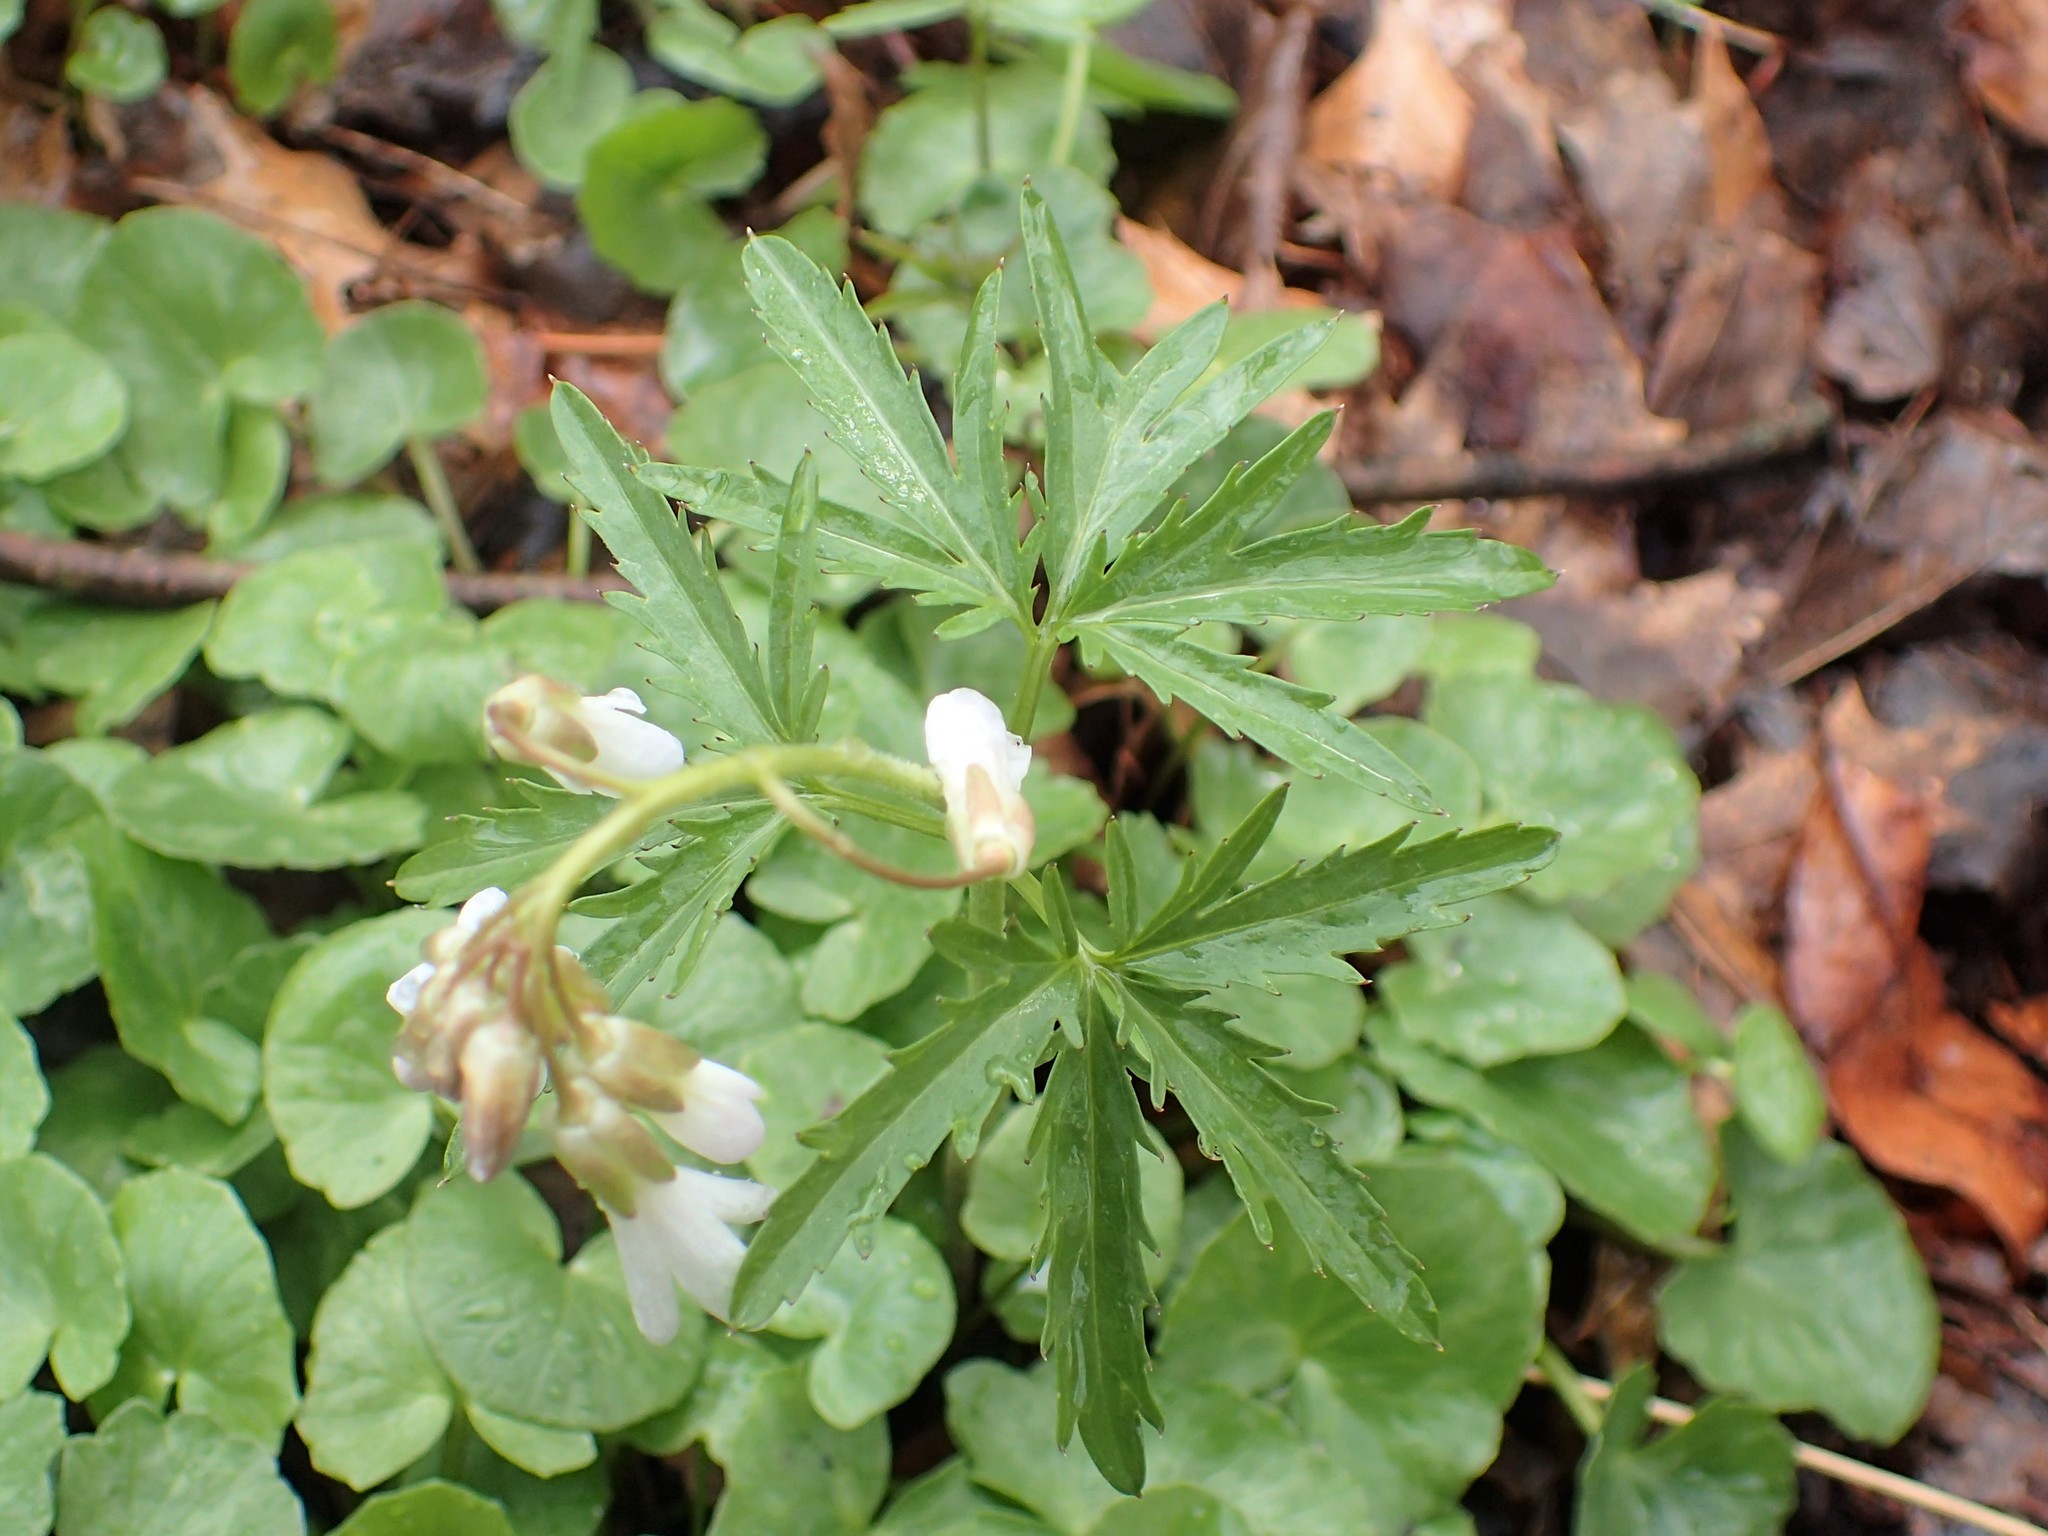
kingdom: Plantae
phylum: Tracheophyta
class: Magnoliopsida
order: Brassicales
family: Brassicaceae
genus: Cardamine
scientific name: Cardamine concatenata
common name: Cut-leaf toothcup
